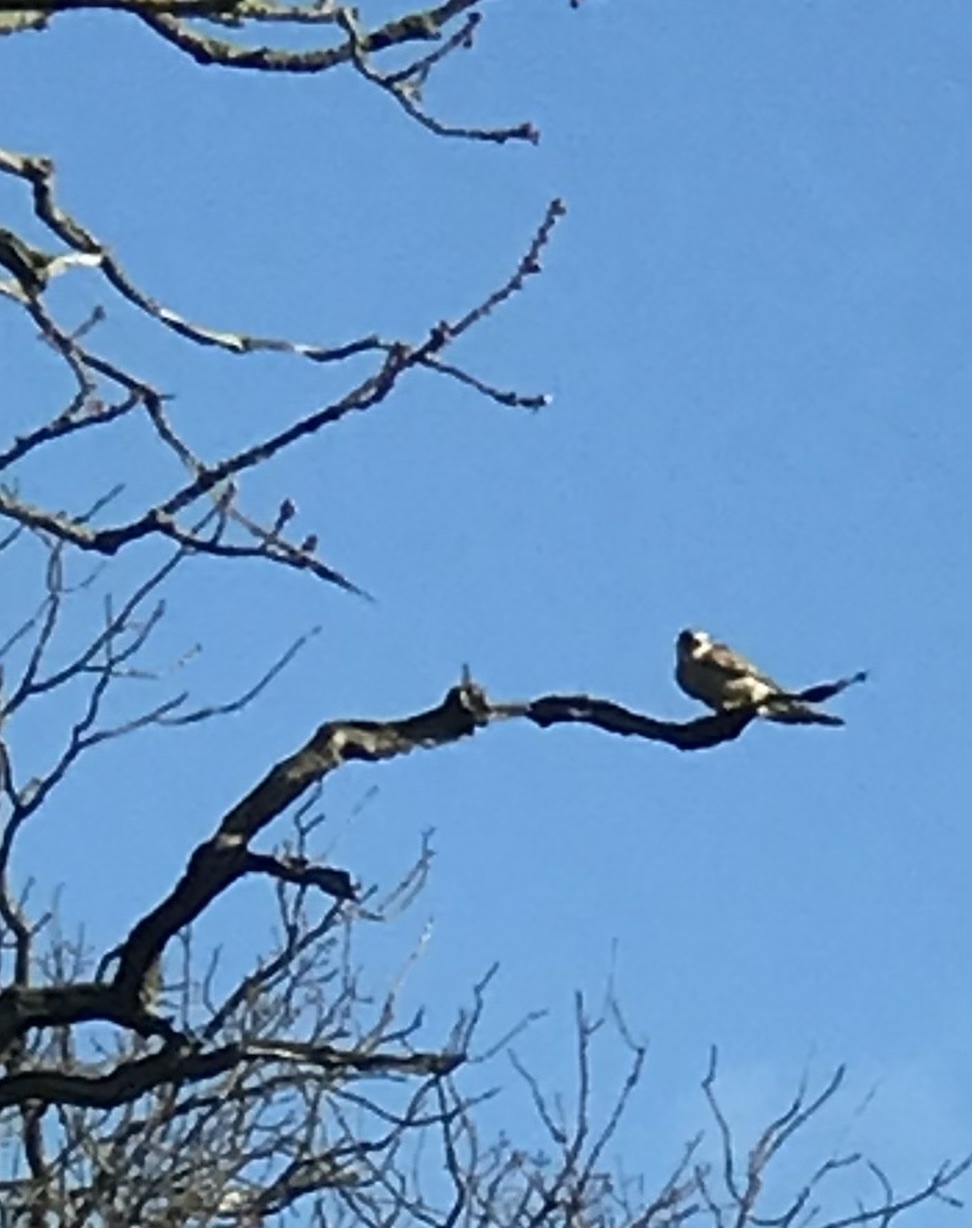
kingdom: Animalia
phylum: Chordata
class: Aves
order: Falconiformes
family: Falconidae
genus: Falco
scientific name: Falco tinnunculus
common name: Common kestrel
